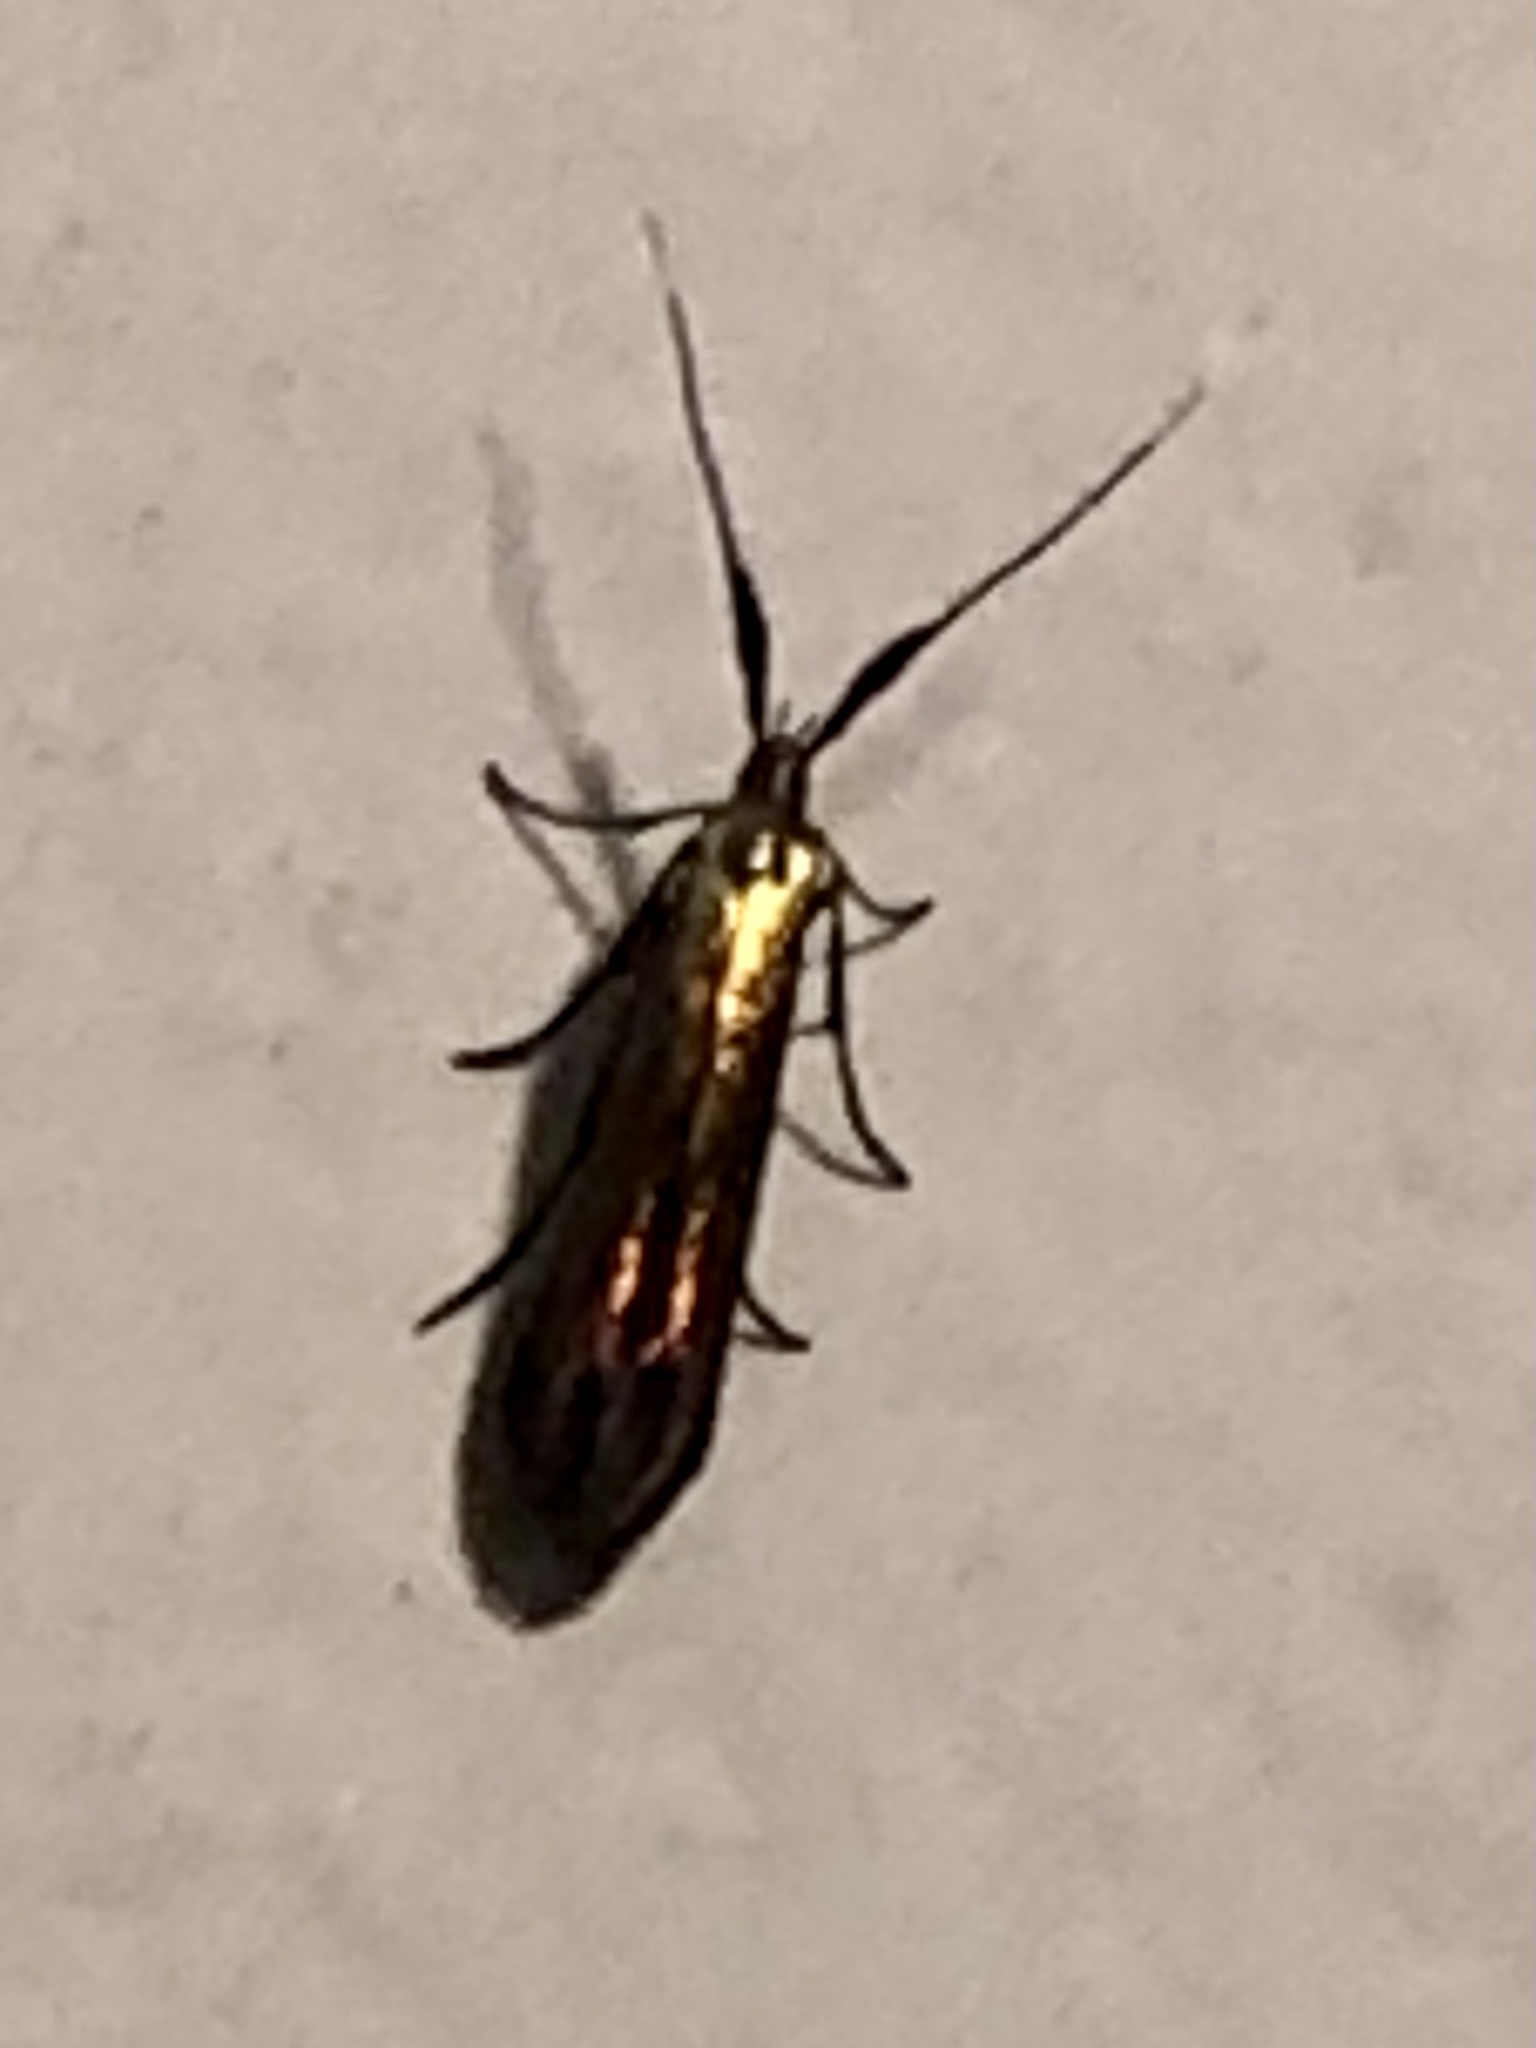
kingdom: Animalia
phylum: Arthropoda
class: Insecta
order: Lepidoptera
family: Coleophoridae
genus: Coleophora
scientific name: Coleophora mayrella
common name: Meadow case-bearer
